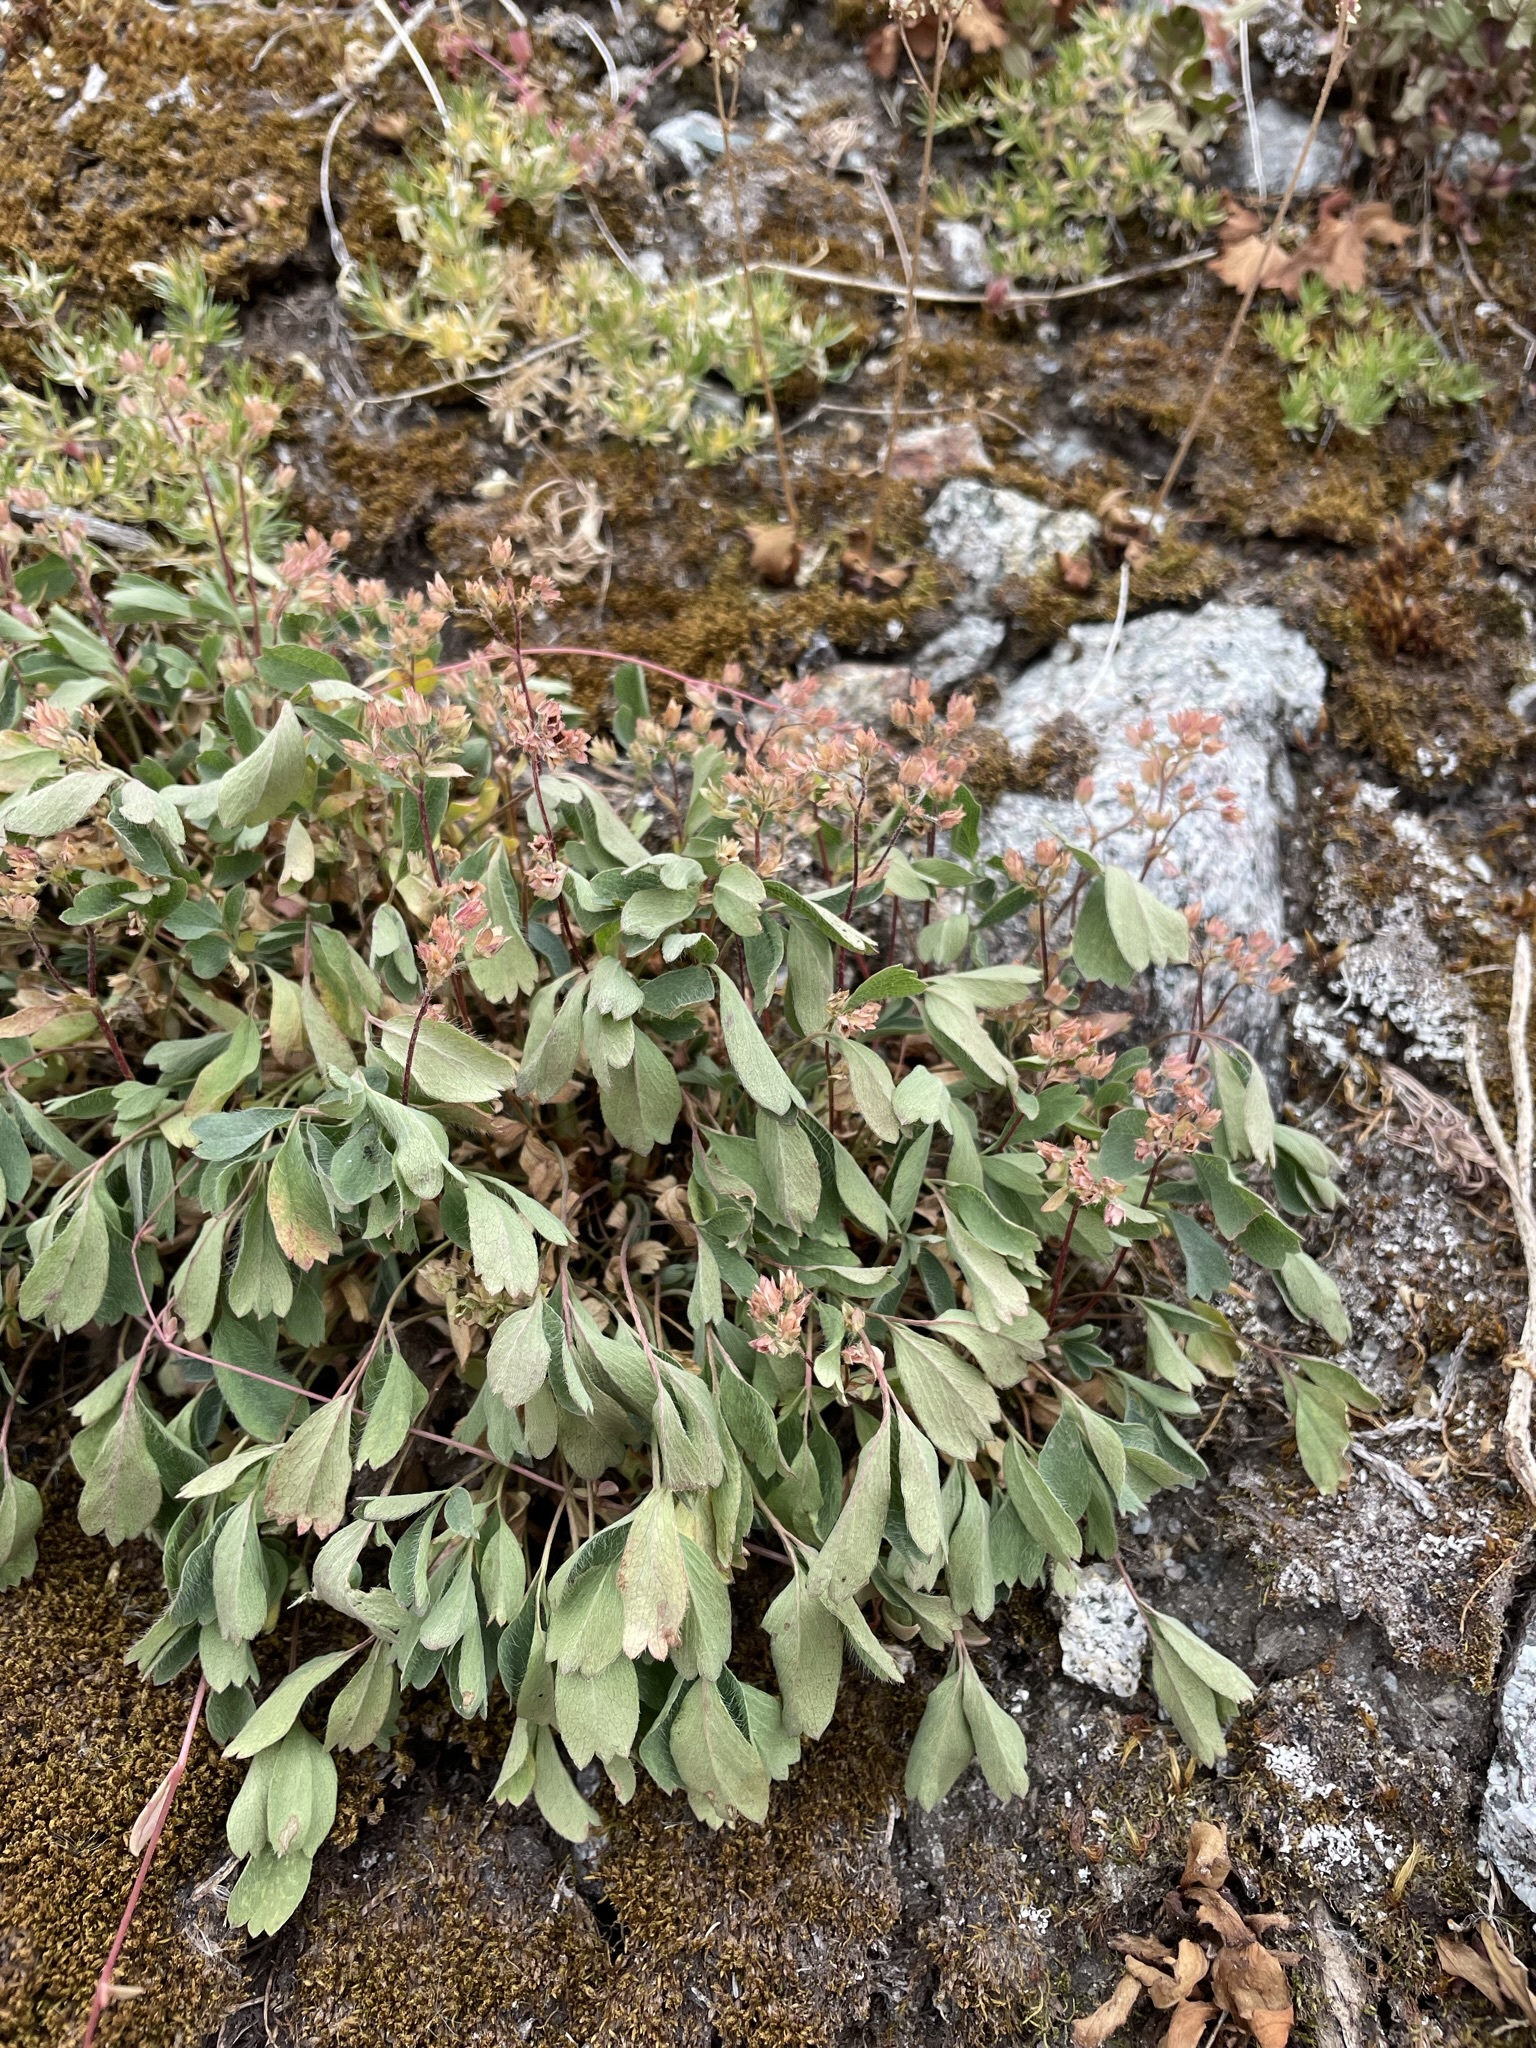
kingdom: Plantae
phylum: Tracheophyta
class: Magnoliopsida
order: Rosales
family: Rosaceae
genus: Sibbaldia
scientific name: Sibbaldia procumbens
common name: Creeping sibbaldia
